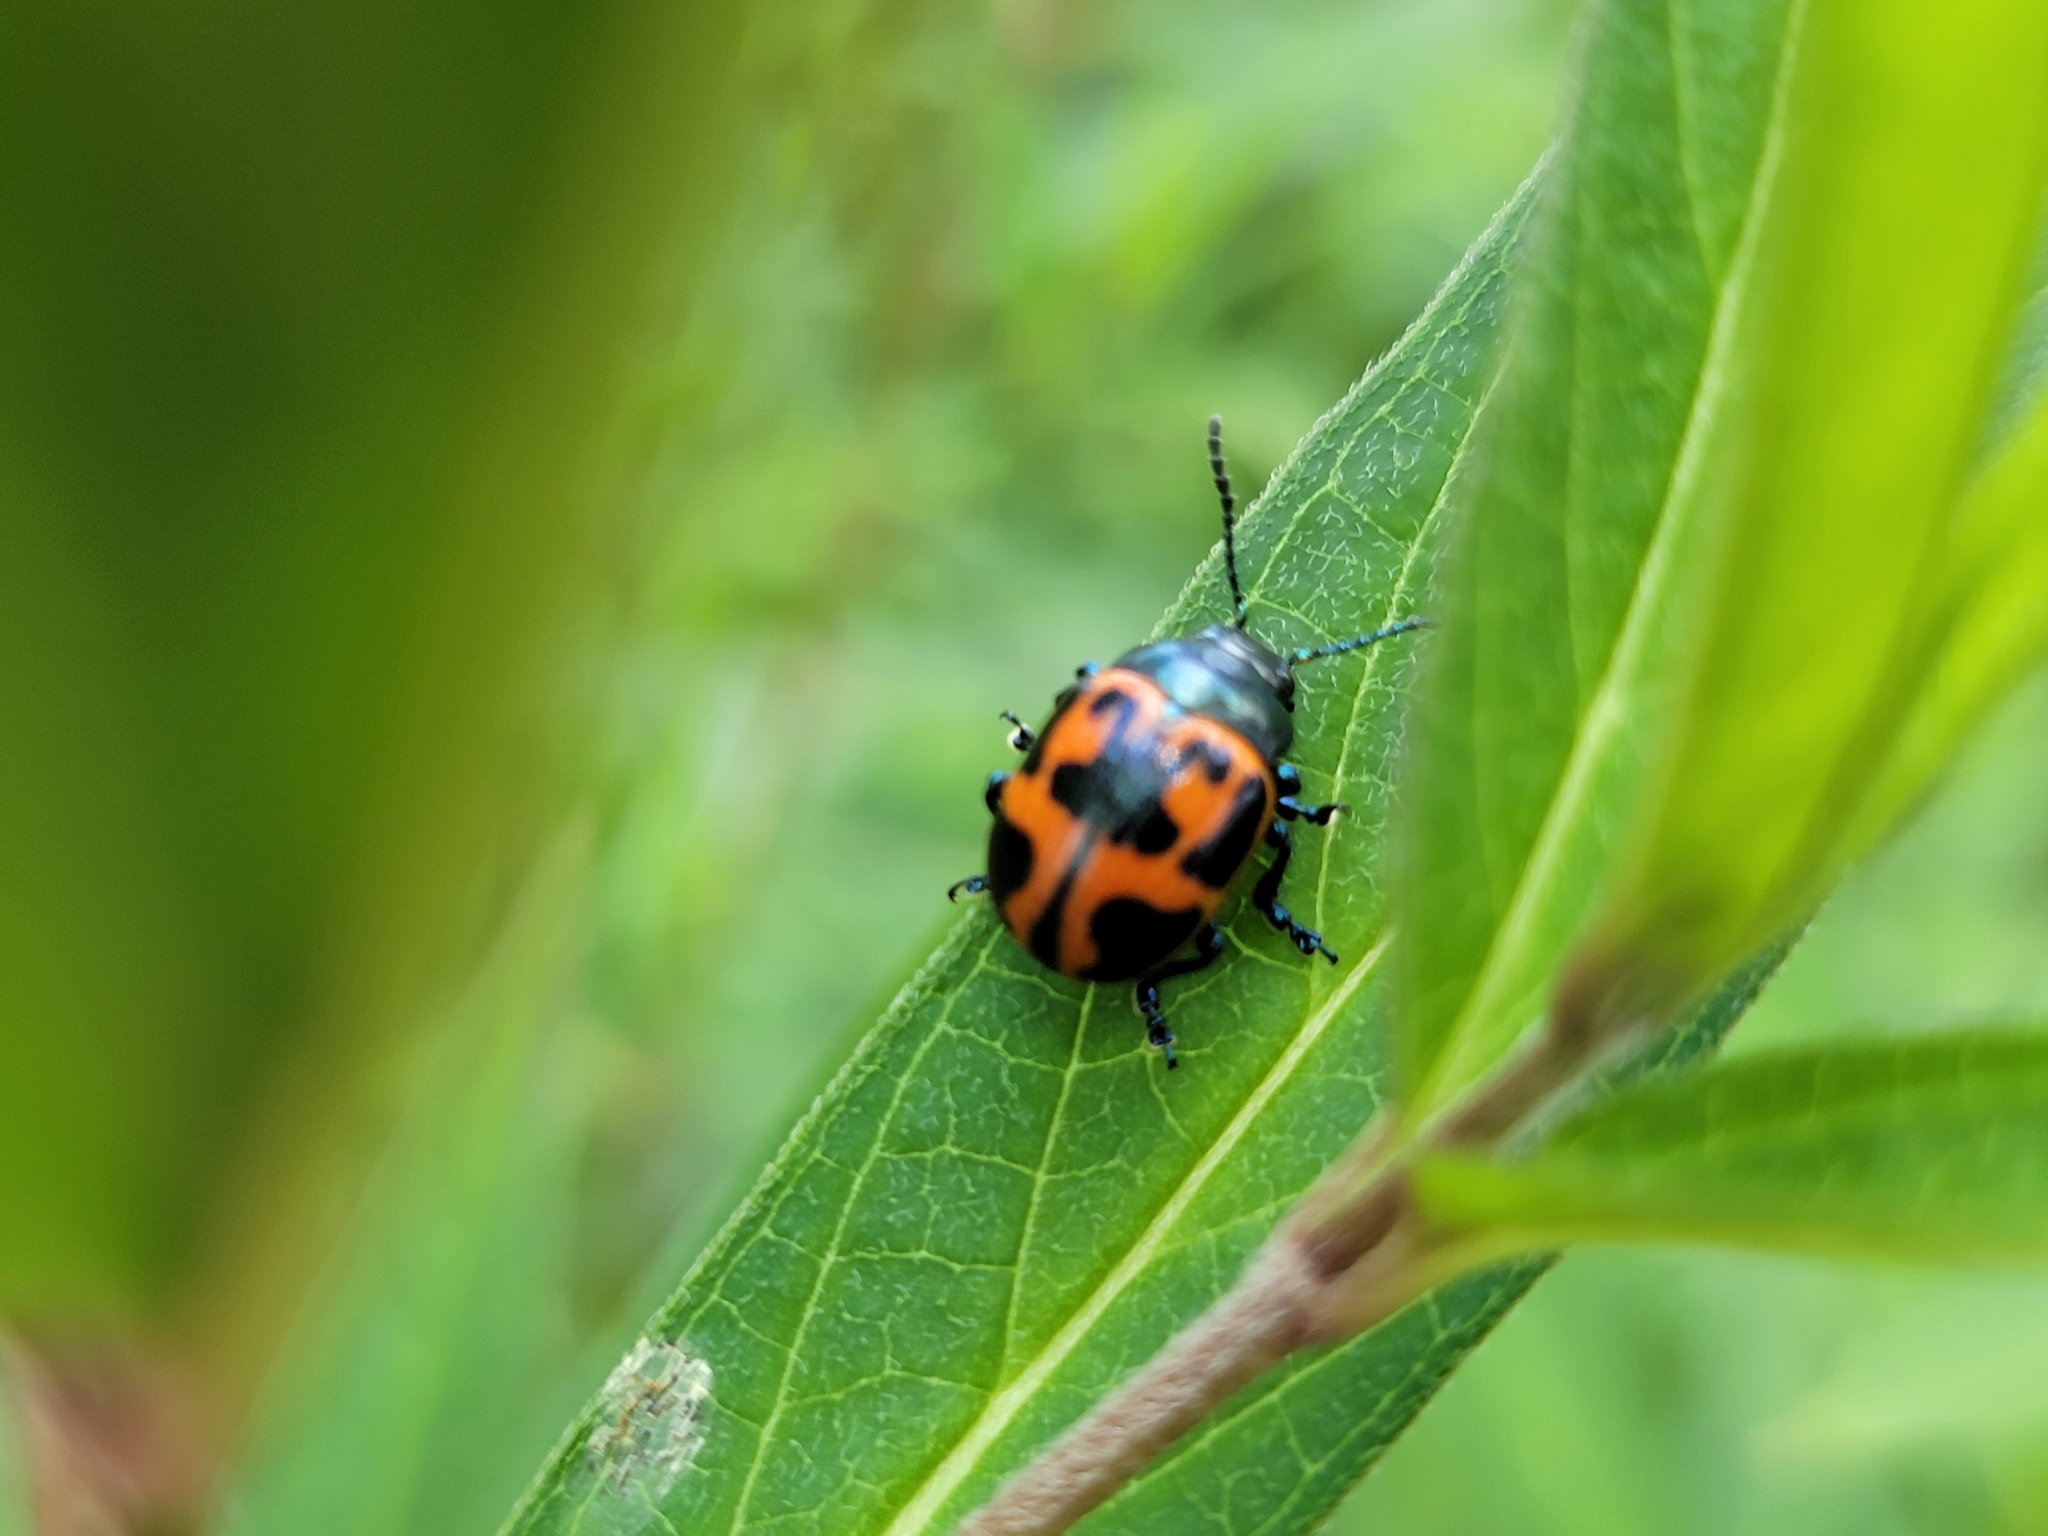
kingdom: Animalia
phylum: Arthropoda
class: Insecta
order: Coleoptera
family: Chrysomelidae
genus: Labidomera
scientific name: Labidomera clivicollis
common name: Swamp milkweed leaf beetle
